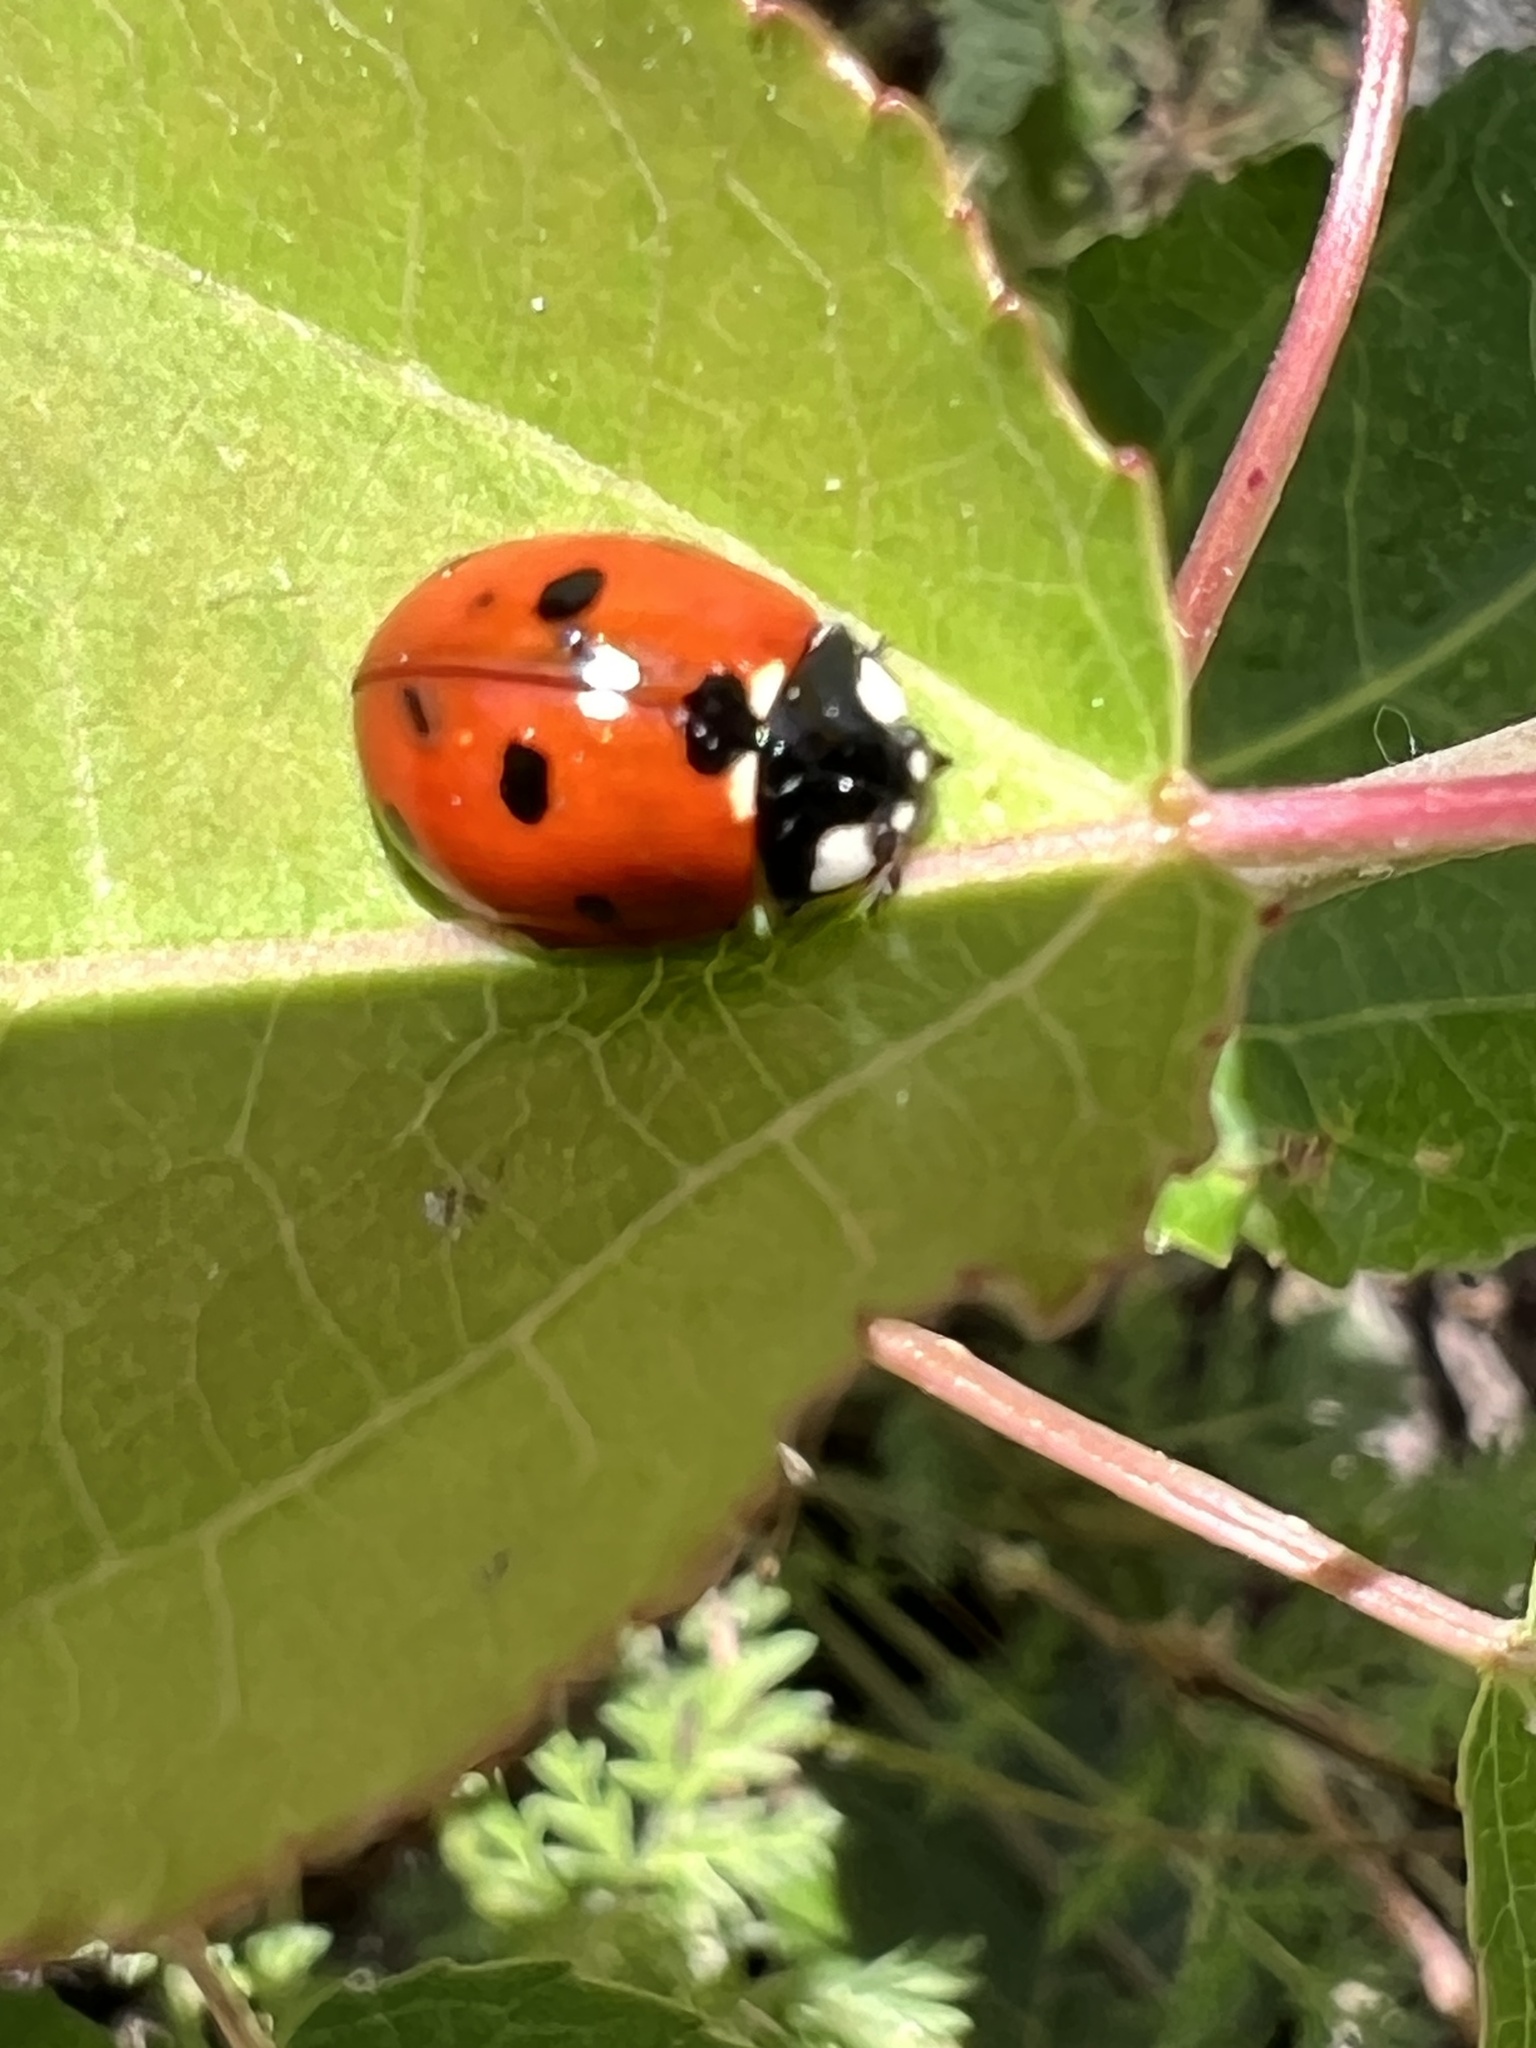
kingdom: Animalia
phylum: Arthropoda
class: Insecta
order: Coleoptera
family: Coccinellidae
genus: Coccinella
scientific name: Coccinella septempunctata
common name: Sevenspotted lady beetle
